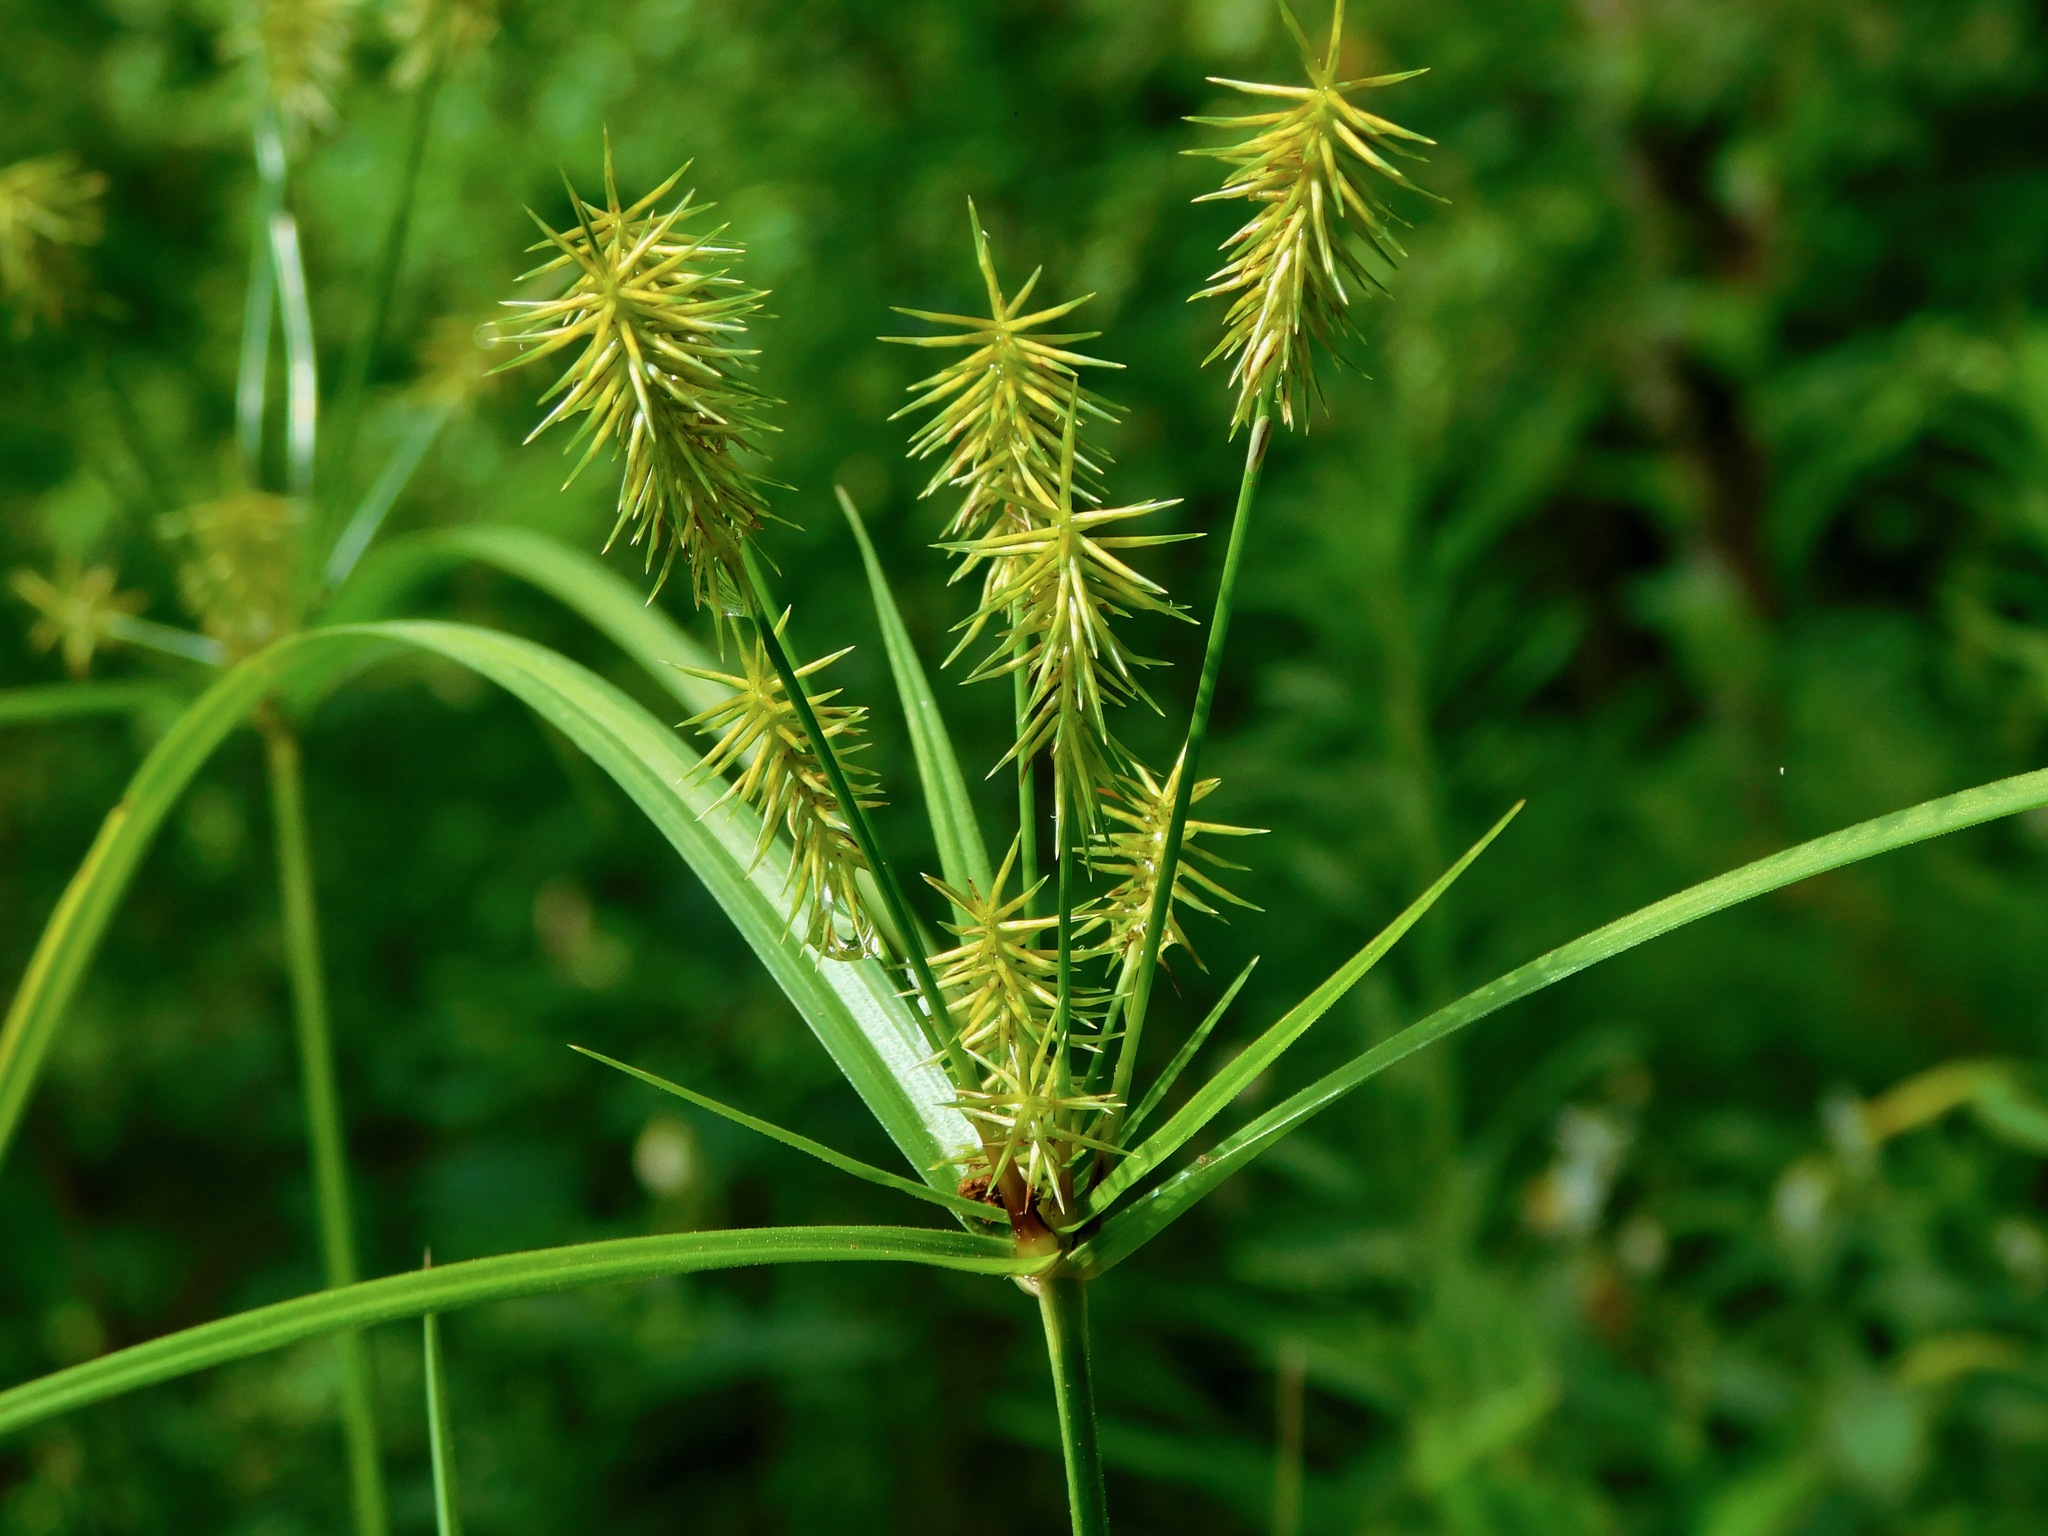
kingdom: Plantae
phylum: Tracheophyta
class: Liliopsida
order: Poales
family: Cyperaceae
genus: Cyperus
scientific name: Cyperus strigosus
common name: False nutsedge
